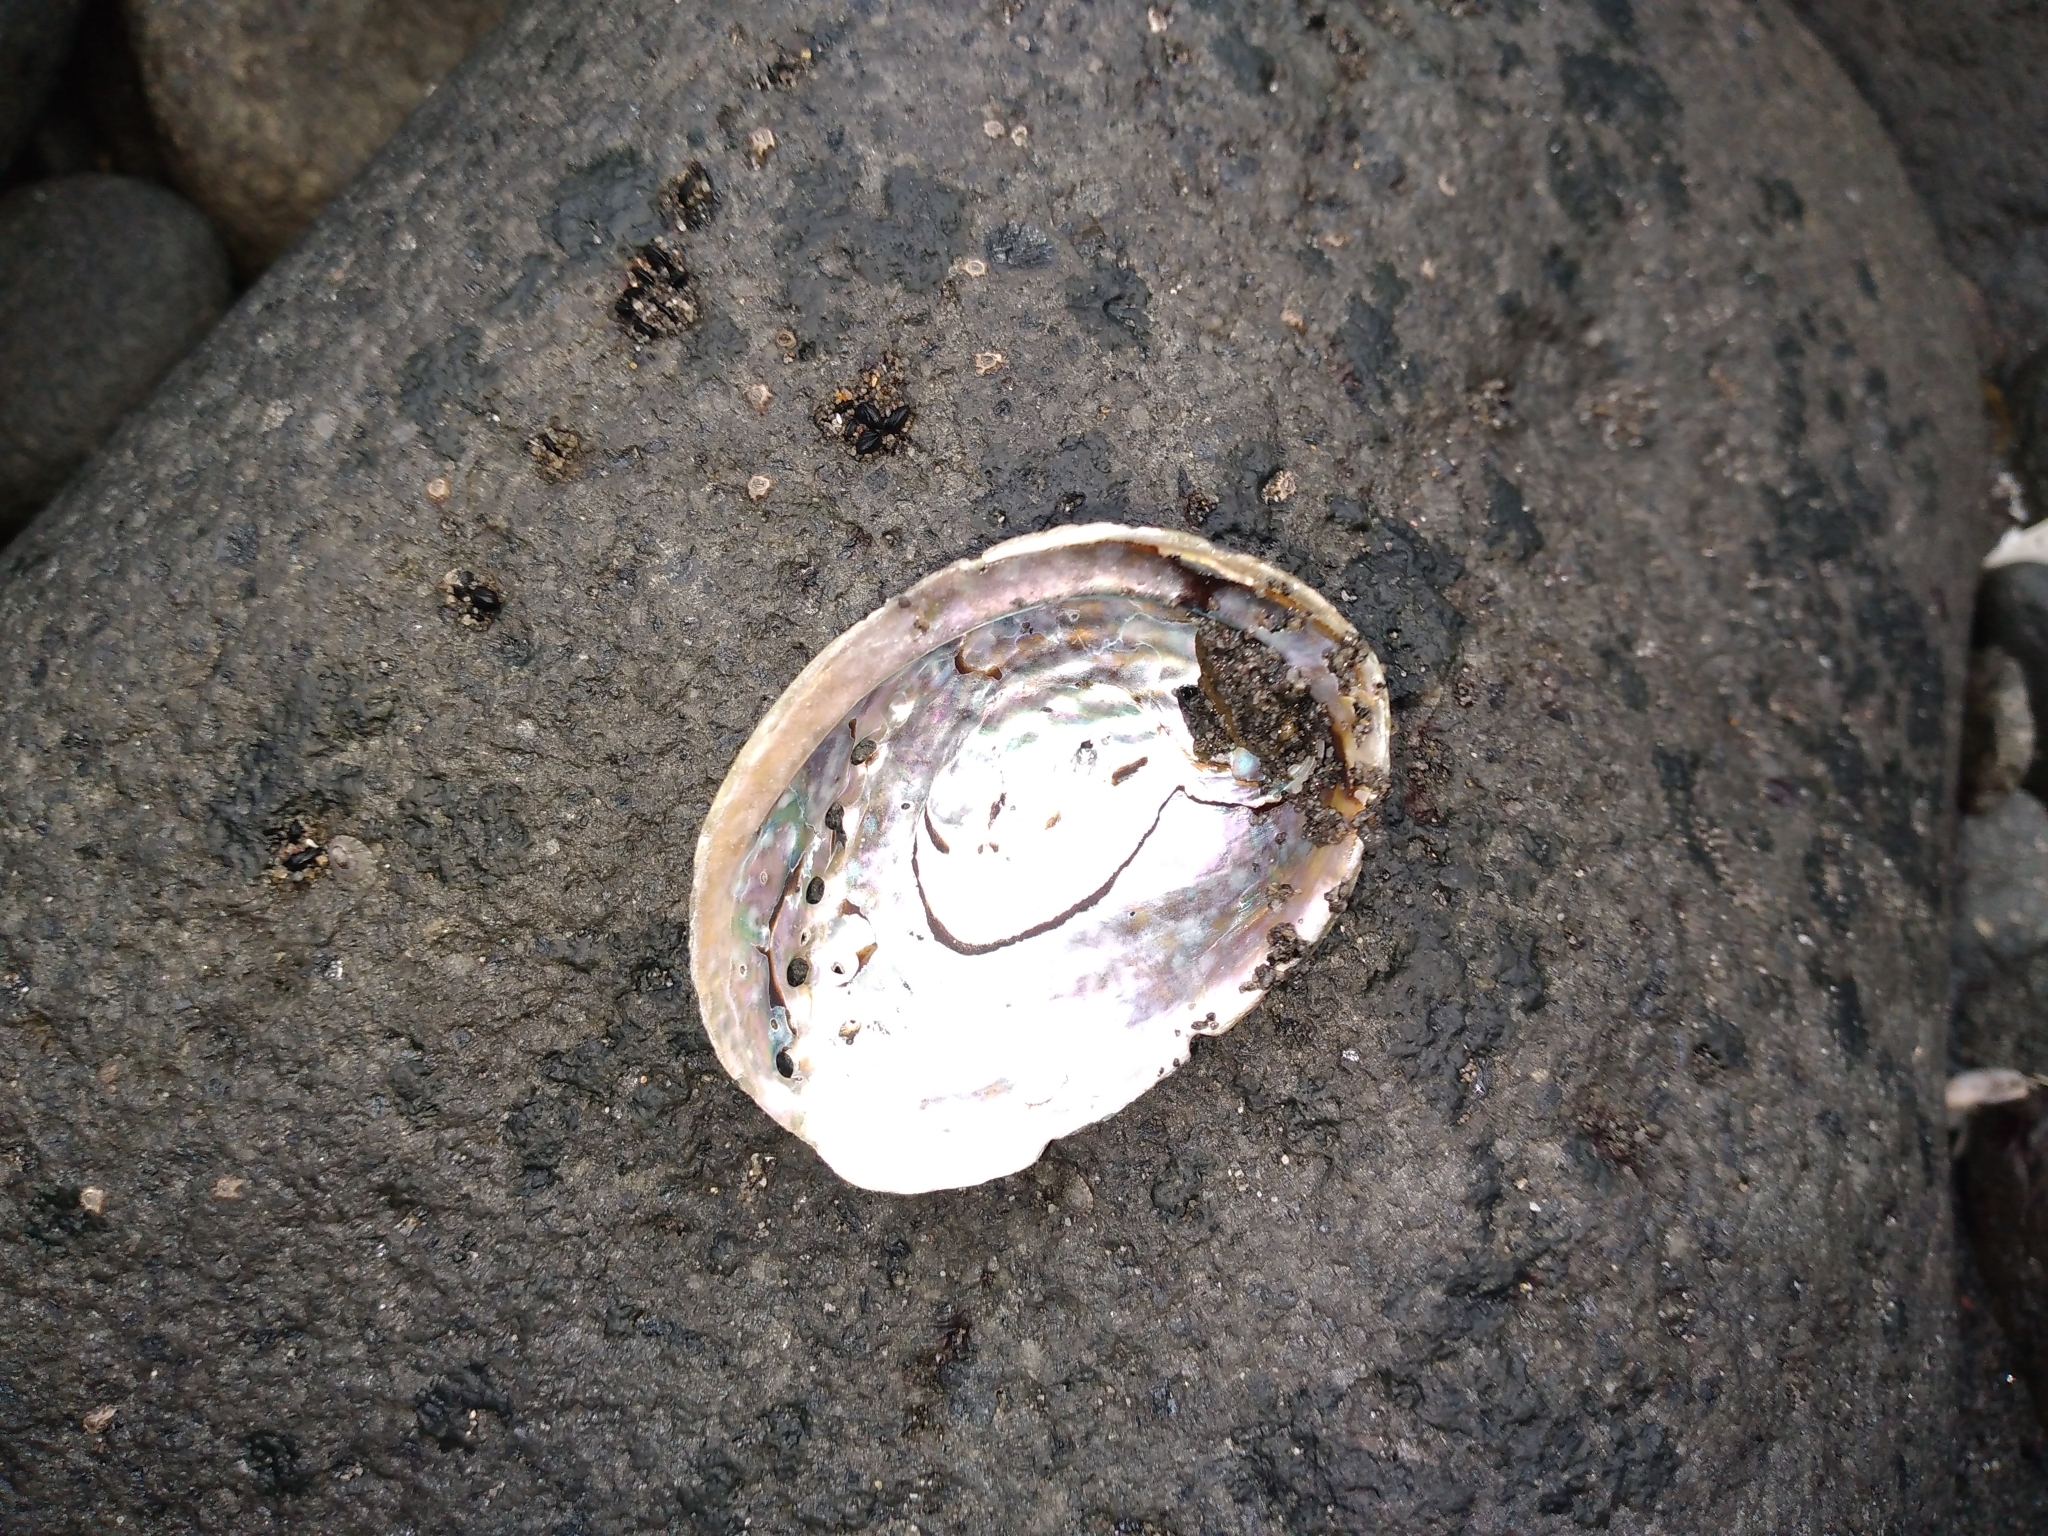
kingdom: Animalia
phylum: Mollusca
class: Gastropoda
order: Lepetellida
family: Haliotidae
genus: Haliotis
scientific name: Haliotis iris
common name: Abalone
